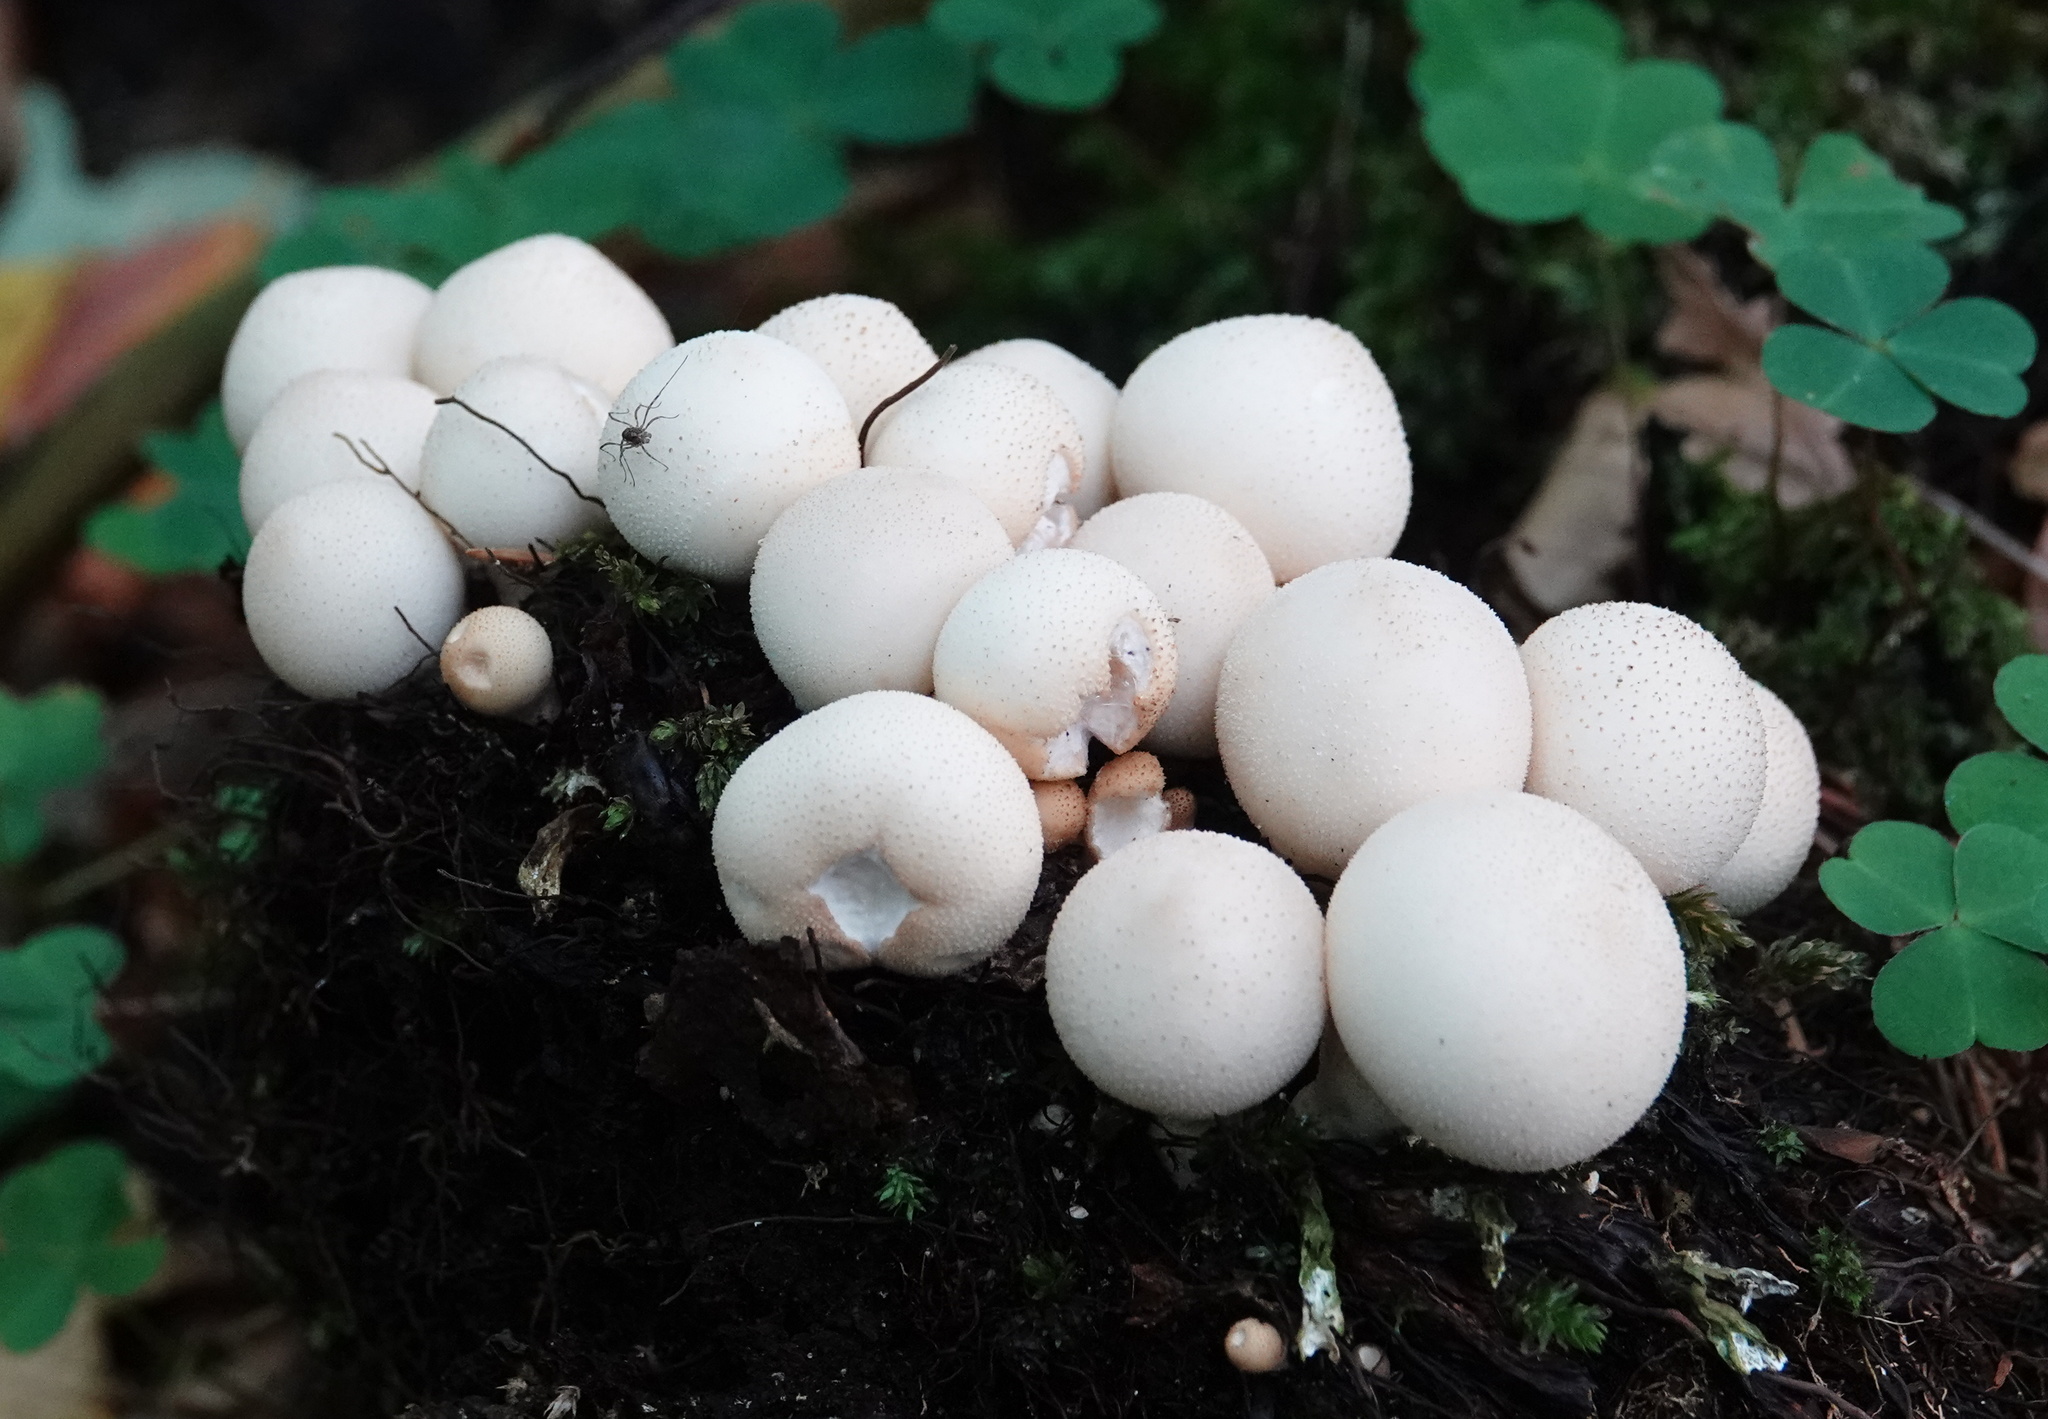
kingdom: Fungi
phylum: Basidiomycota
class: Agaricomycetes
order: Agaricales
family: Lycoperdaceae
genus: Apioperdon
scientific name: Apioperdon pyriforme
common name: Pear-shaped puffball
